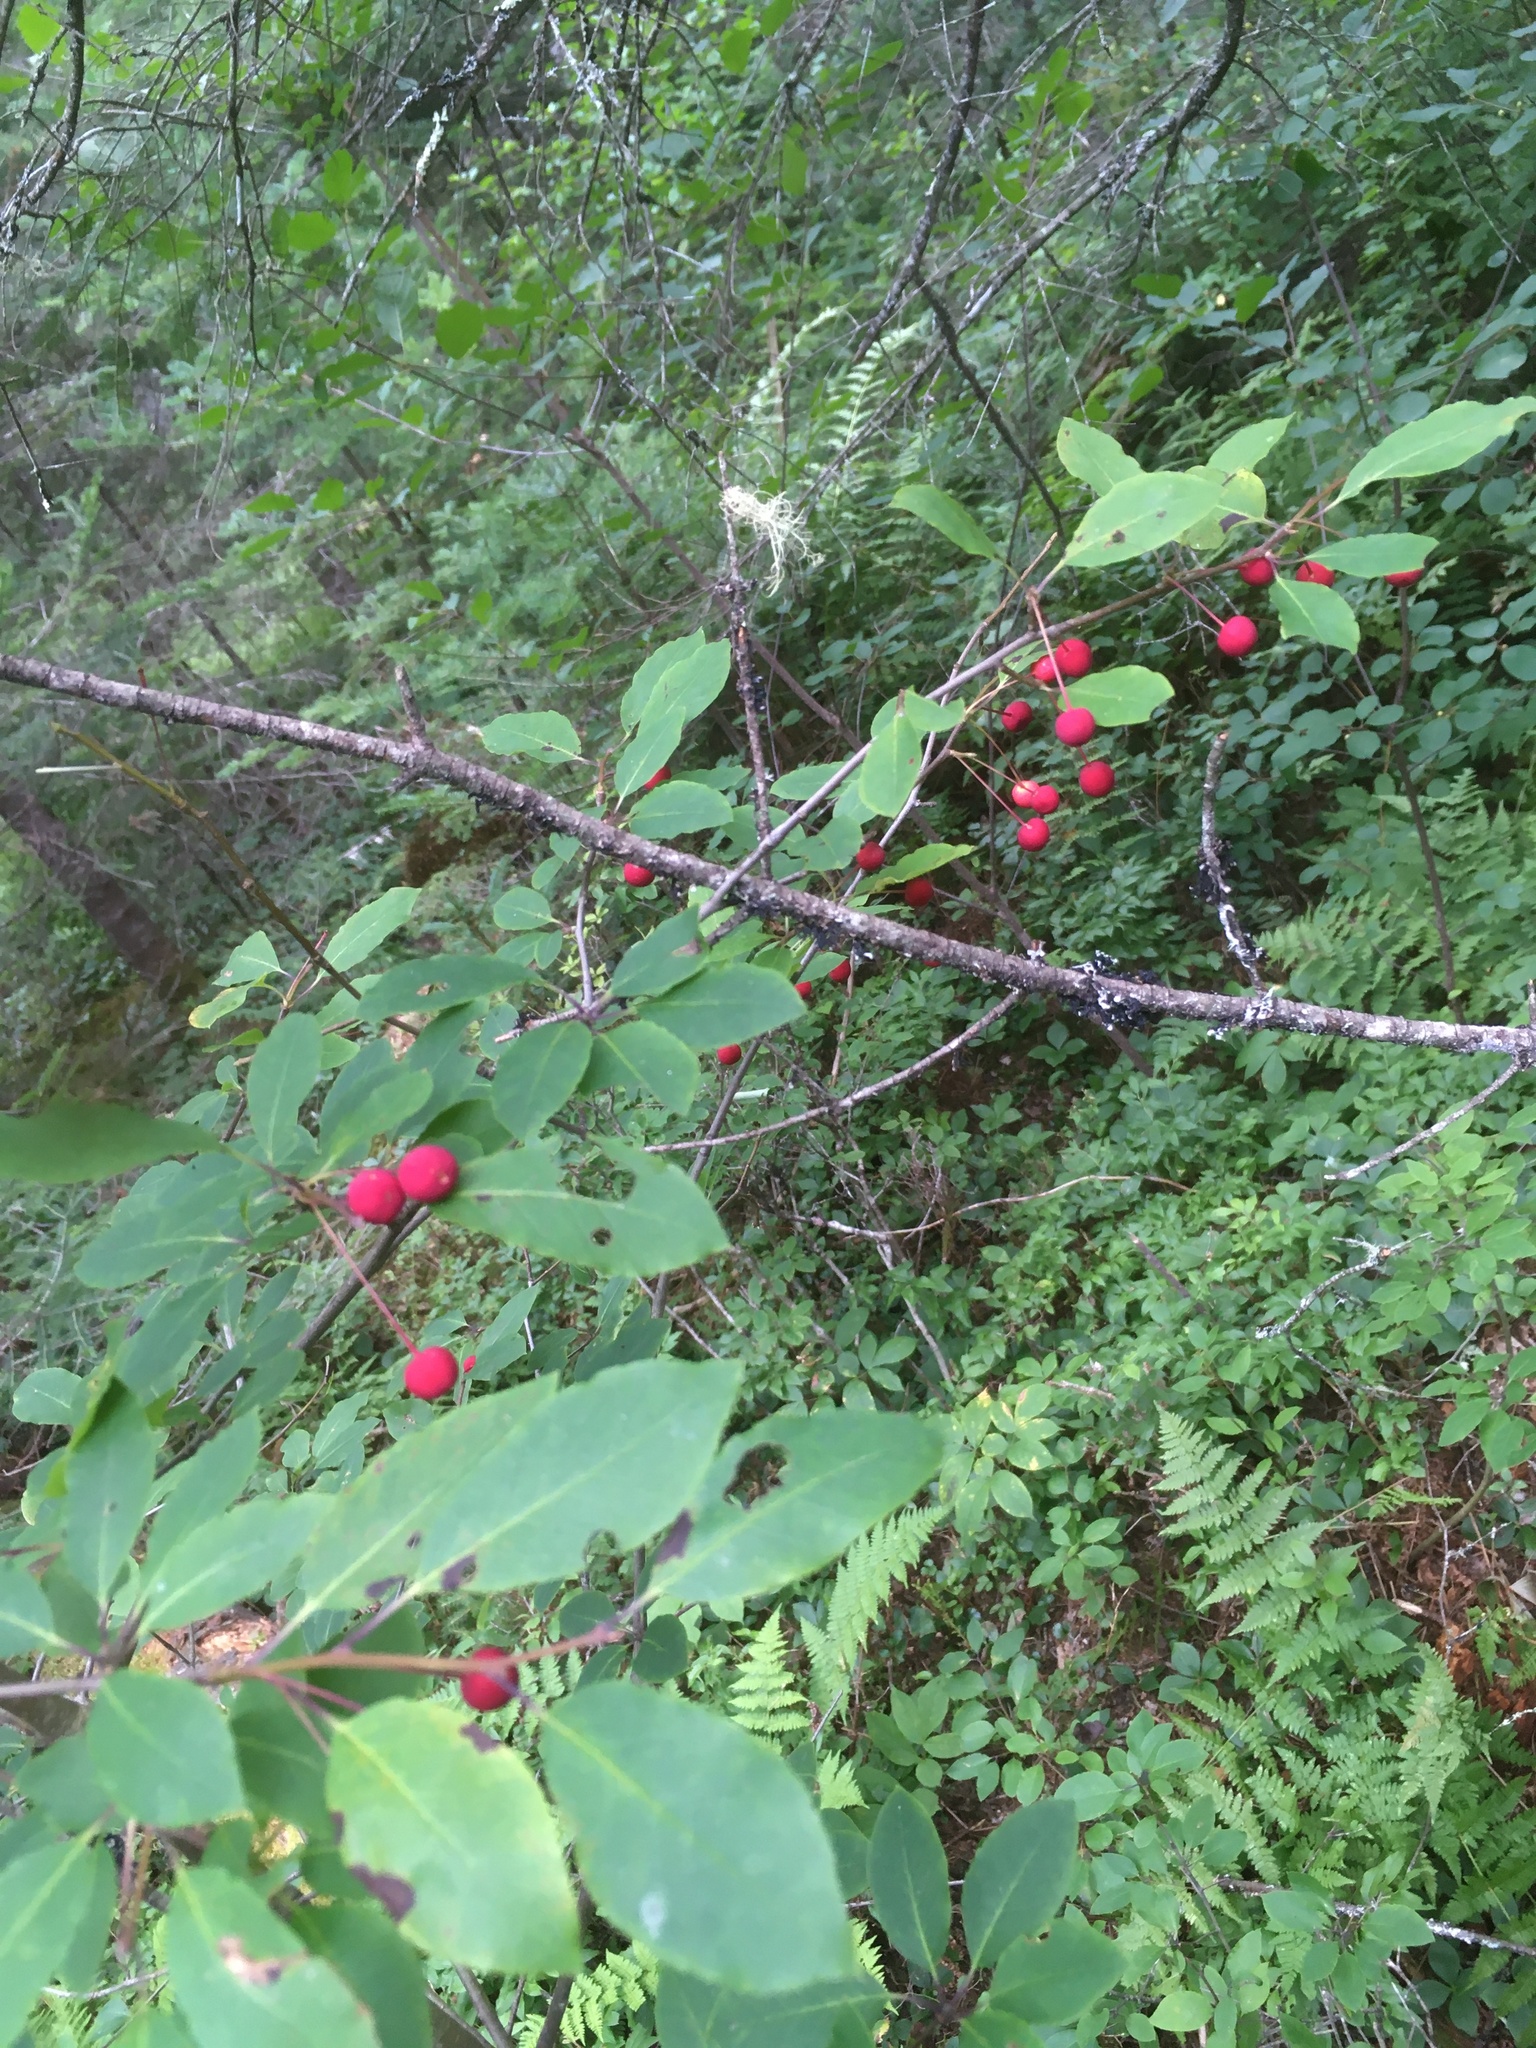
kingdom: Plantae
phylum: Tracheophyta
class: Magnoliopsida
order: Aquifoliales
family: Aquifoliaceae
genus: Ilex
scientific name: Ilex mucronata
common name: Catberry
